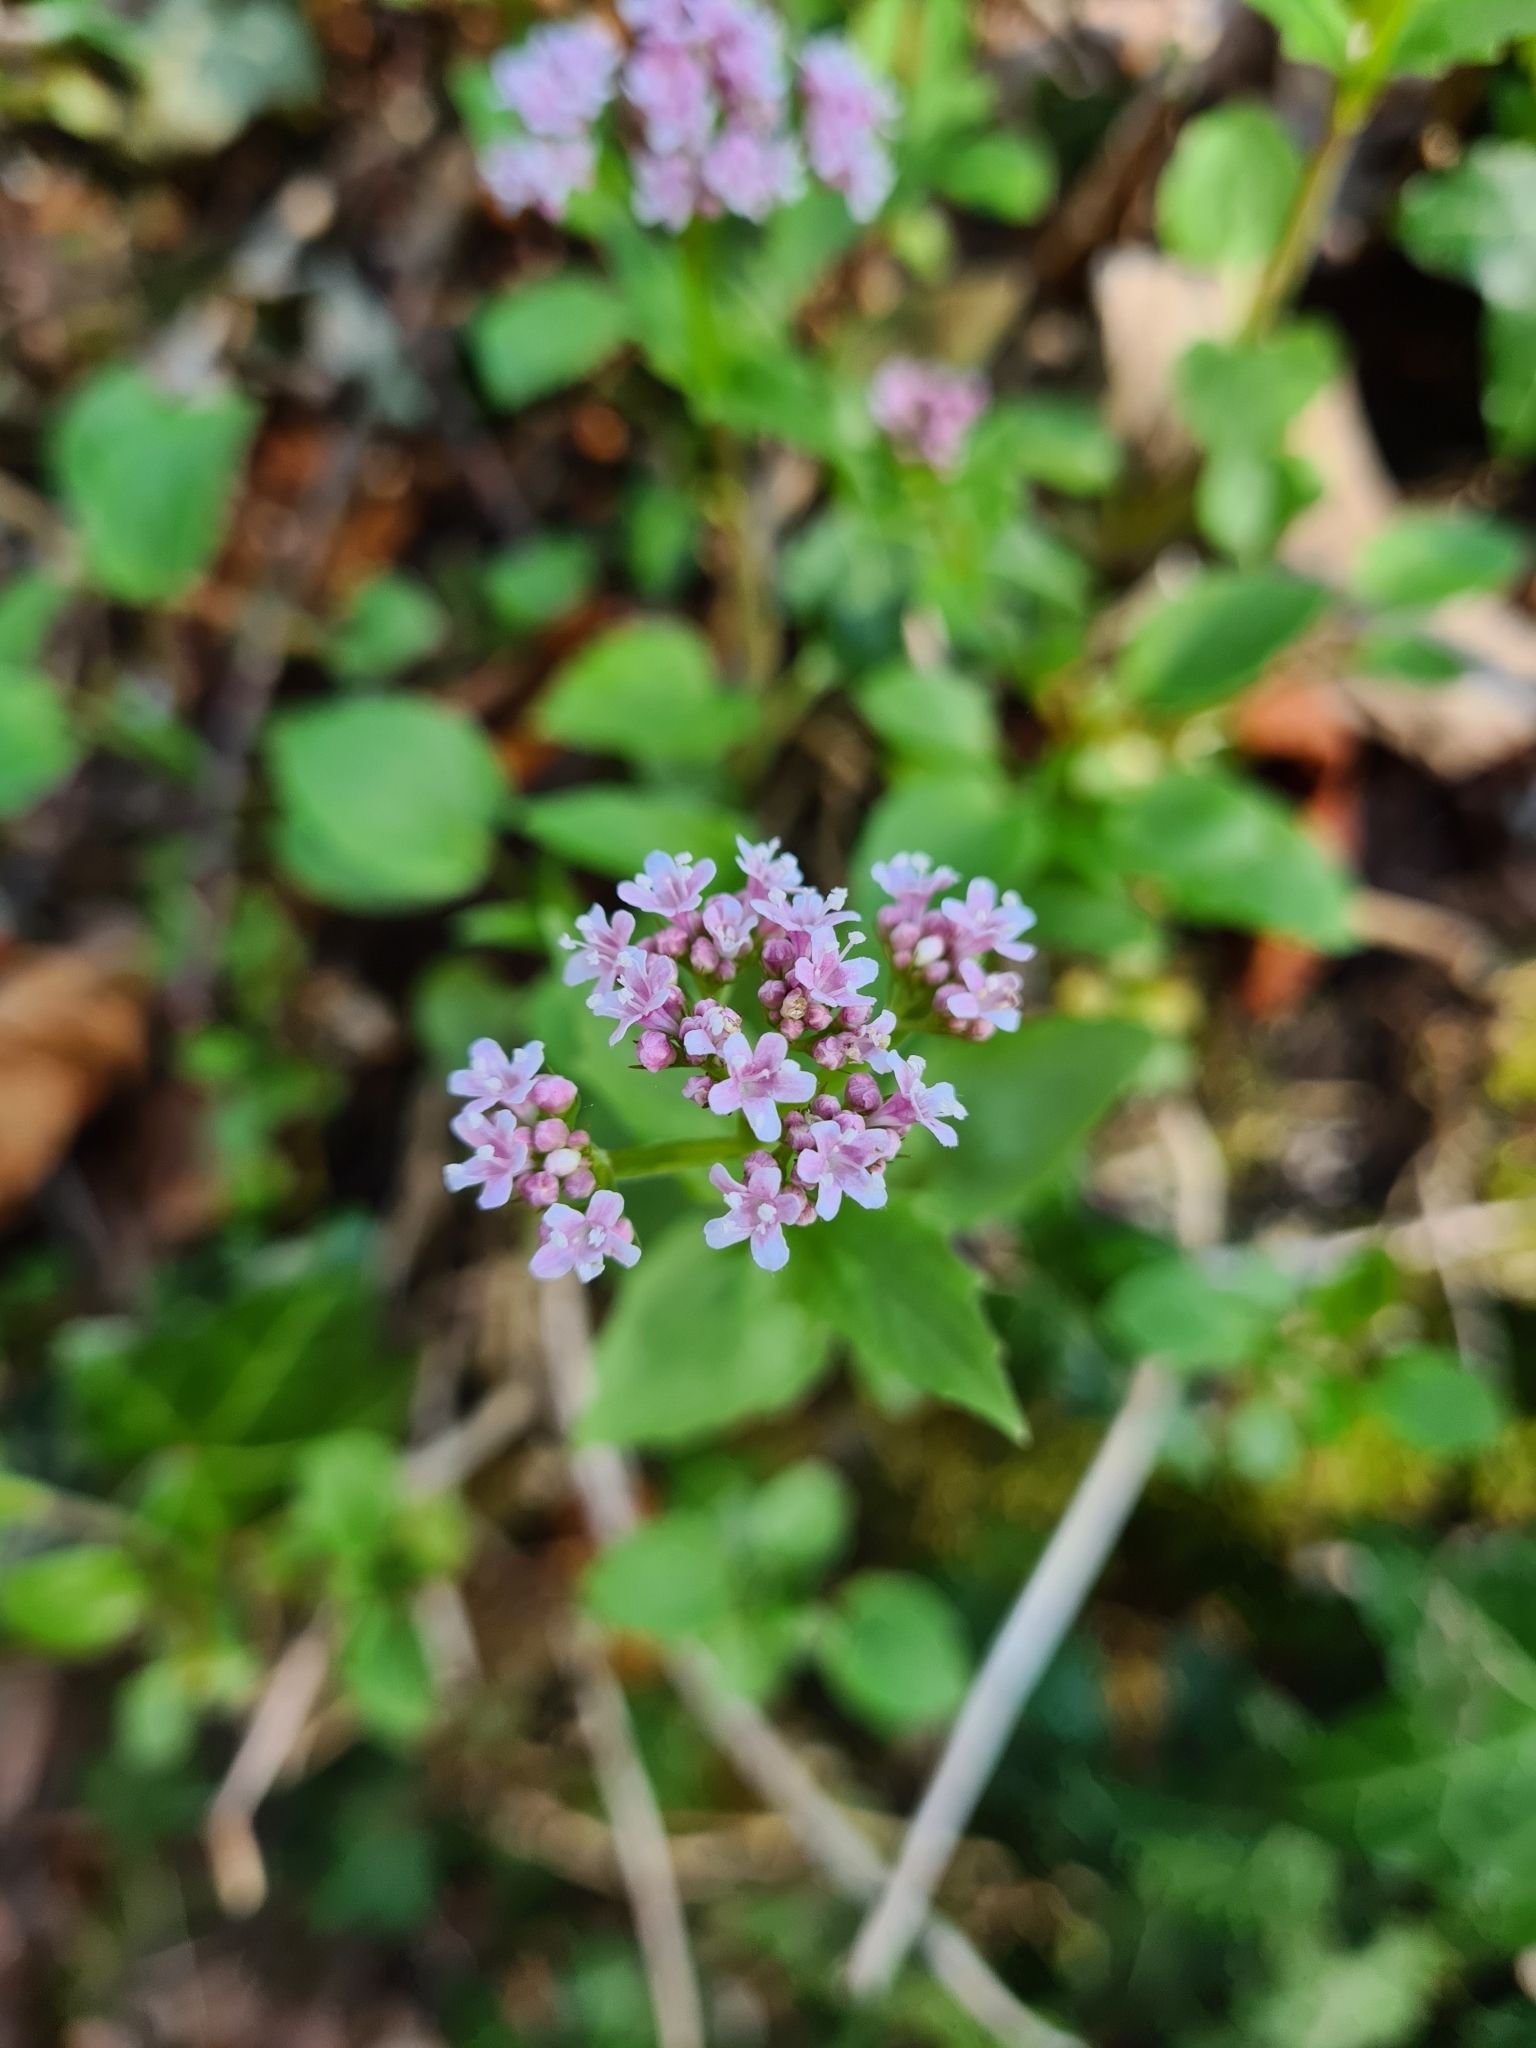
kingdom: Plantae
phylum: Tracheophyta
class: Magnoliopsida
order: Dipsacales
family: Caprifoliaceae
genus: Valeriana
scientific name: Valeriana tripteris
